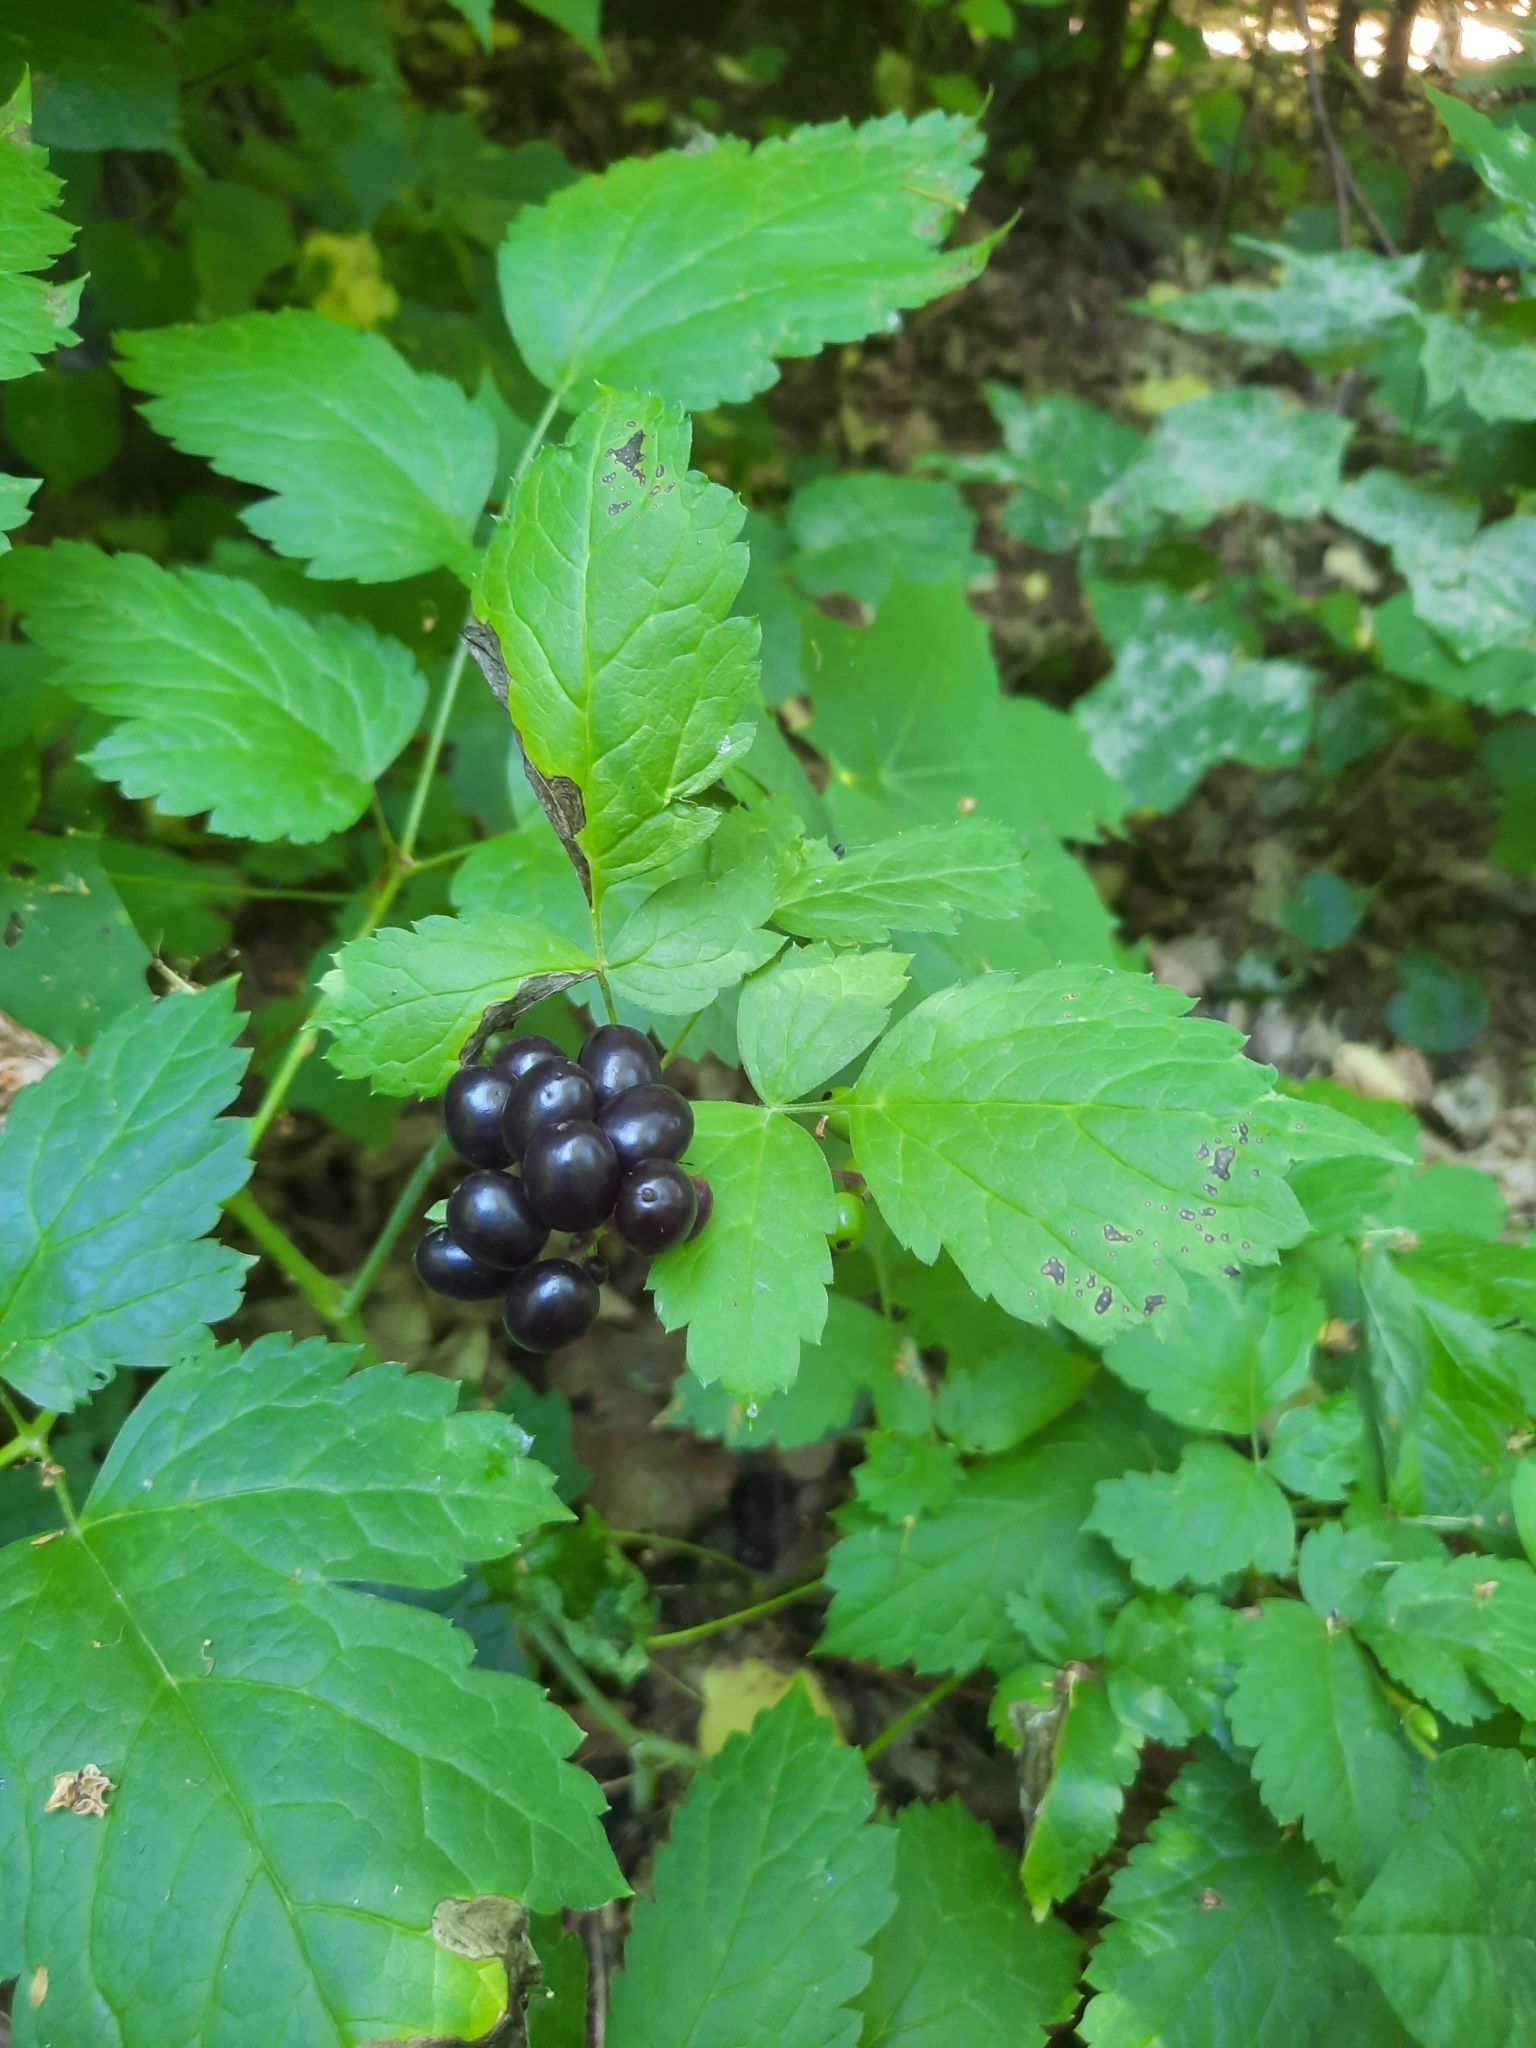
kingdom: Plantae
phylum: Tracheophyta
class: Magnoliopsida
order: Ranunculales
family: Ranunculaceae
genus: Actaea
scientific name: Actaea spicata
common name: Baneberry
